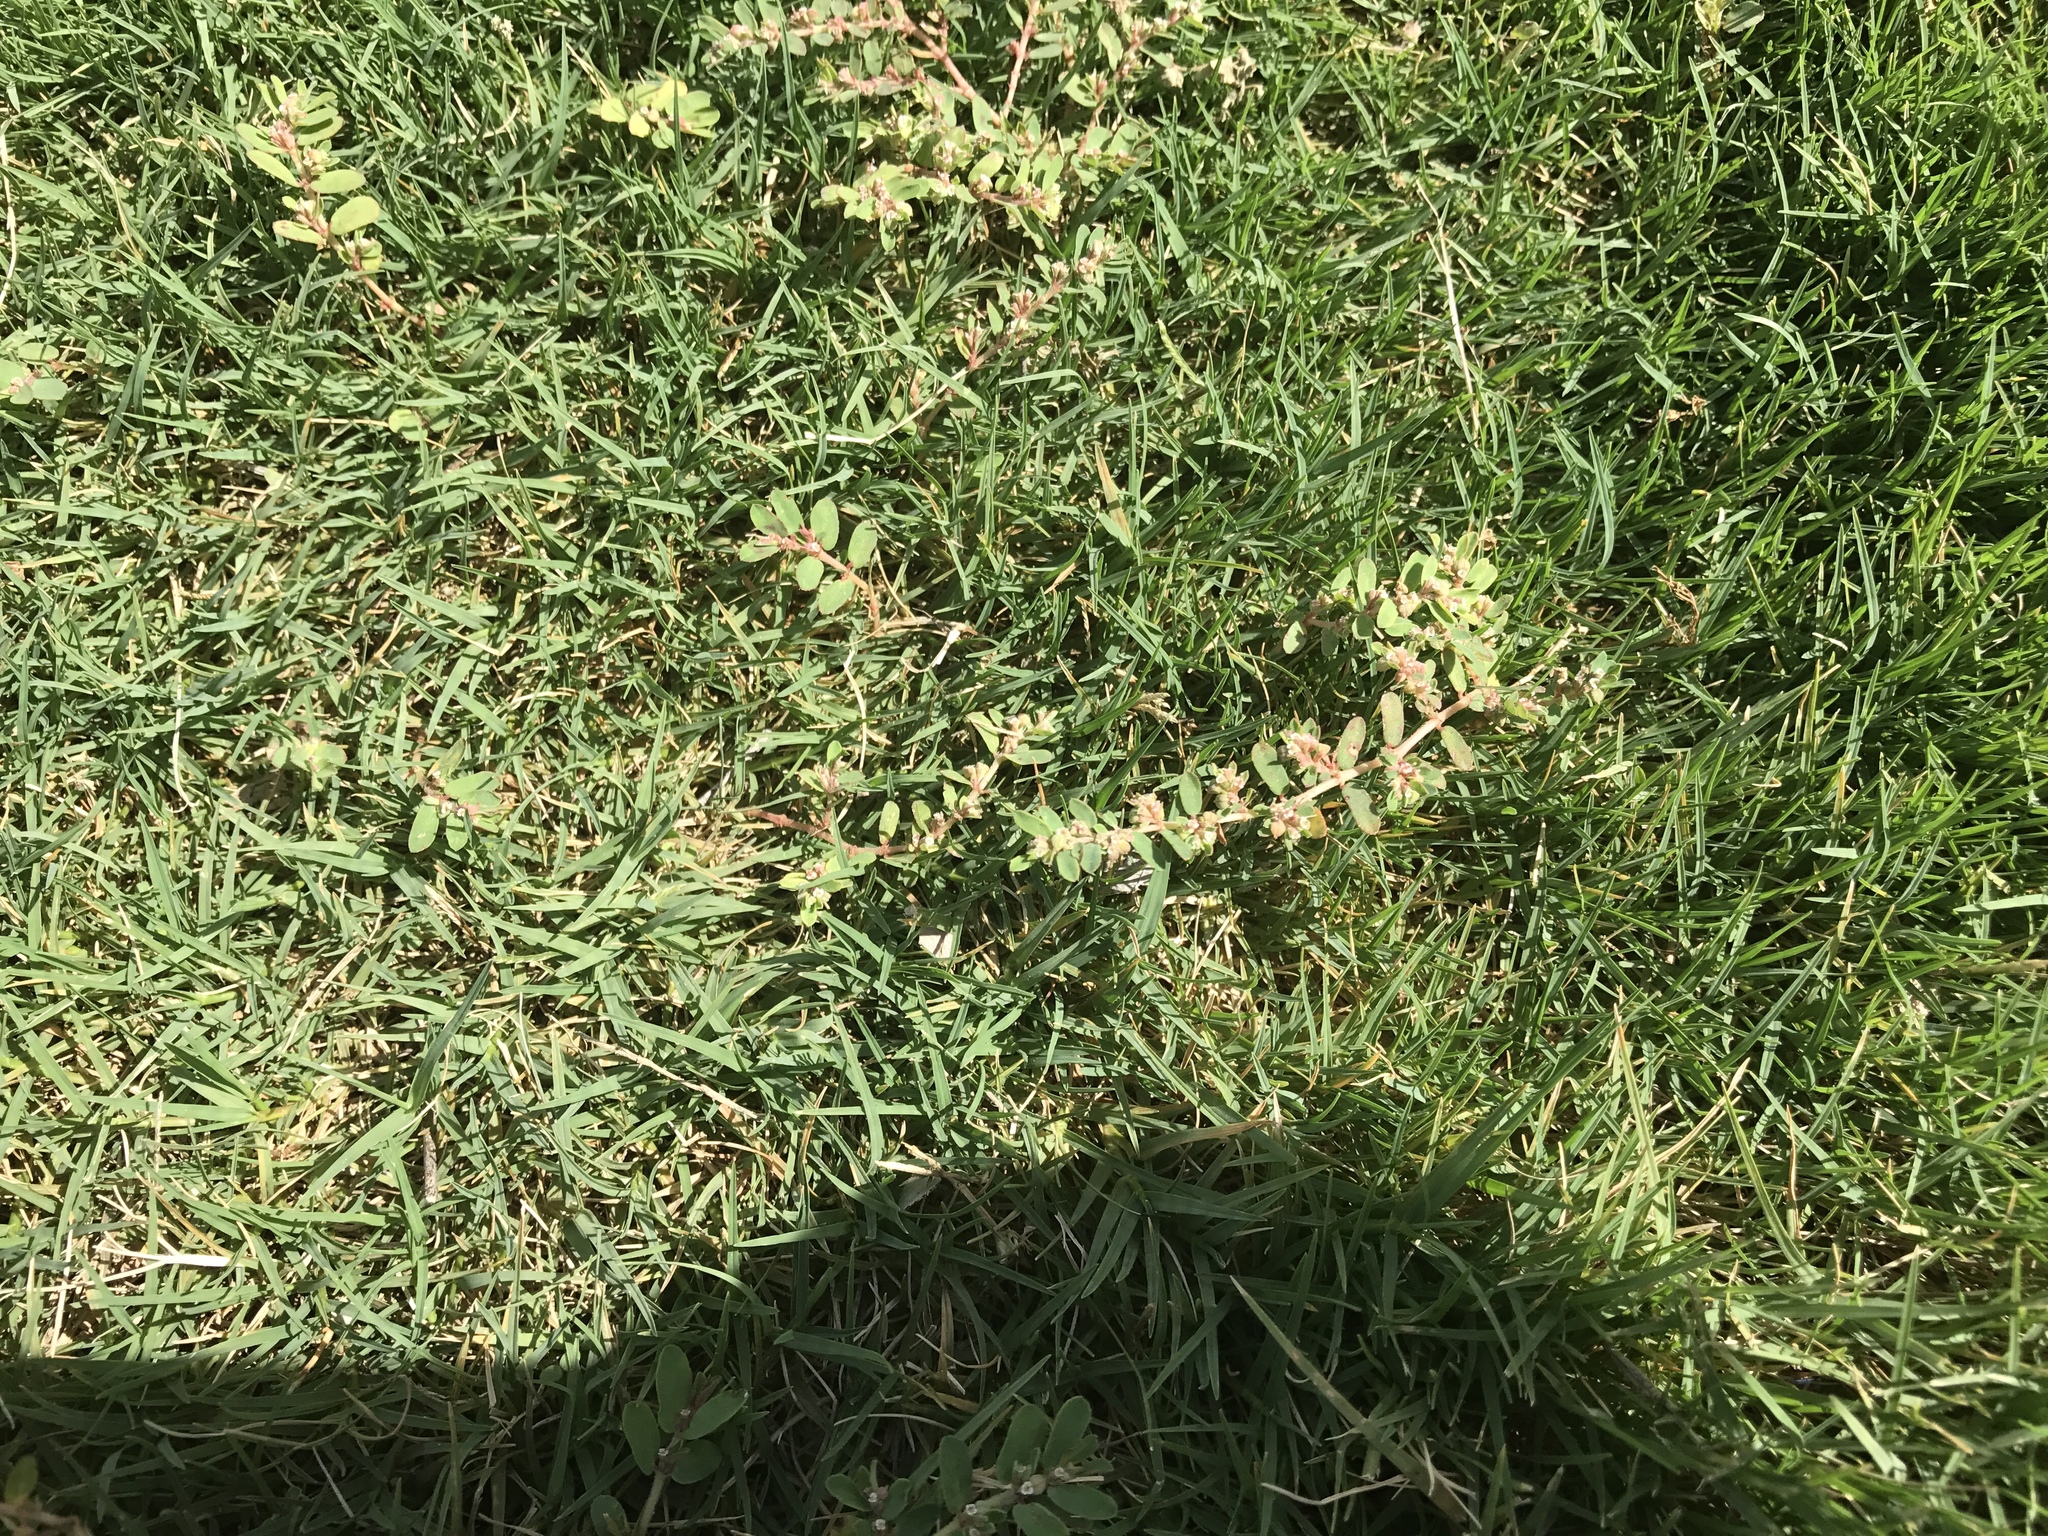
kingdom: Plantae
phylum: Tracheophyta
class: Magnoliopsida
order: Malpighiales
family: Euphorbiaceae
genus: Euphorbia
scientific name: Euphorbia maculata
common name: Spotted spurge
